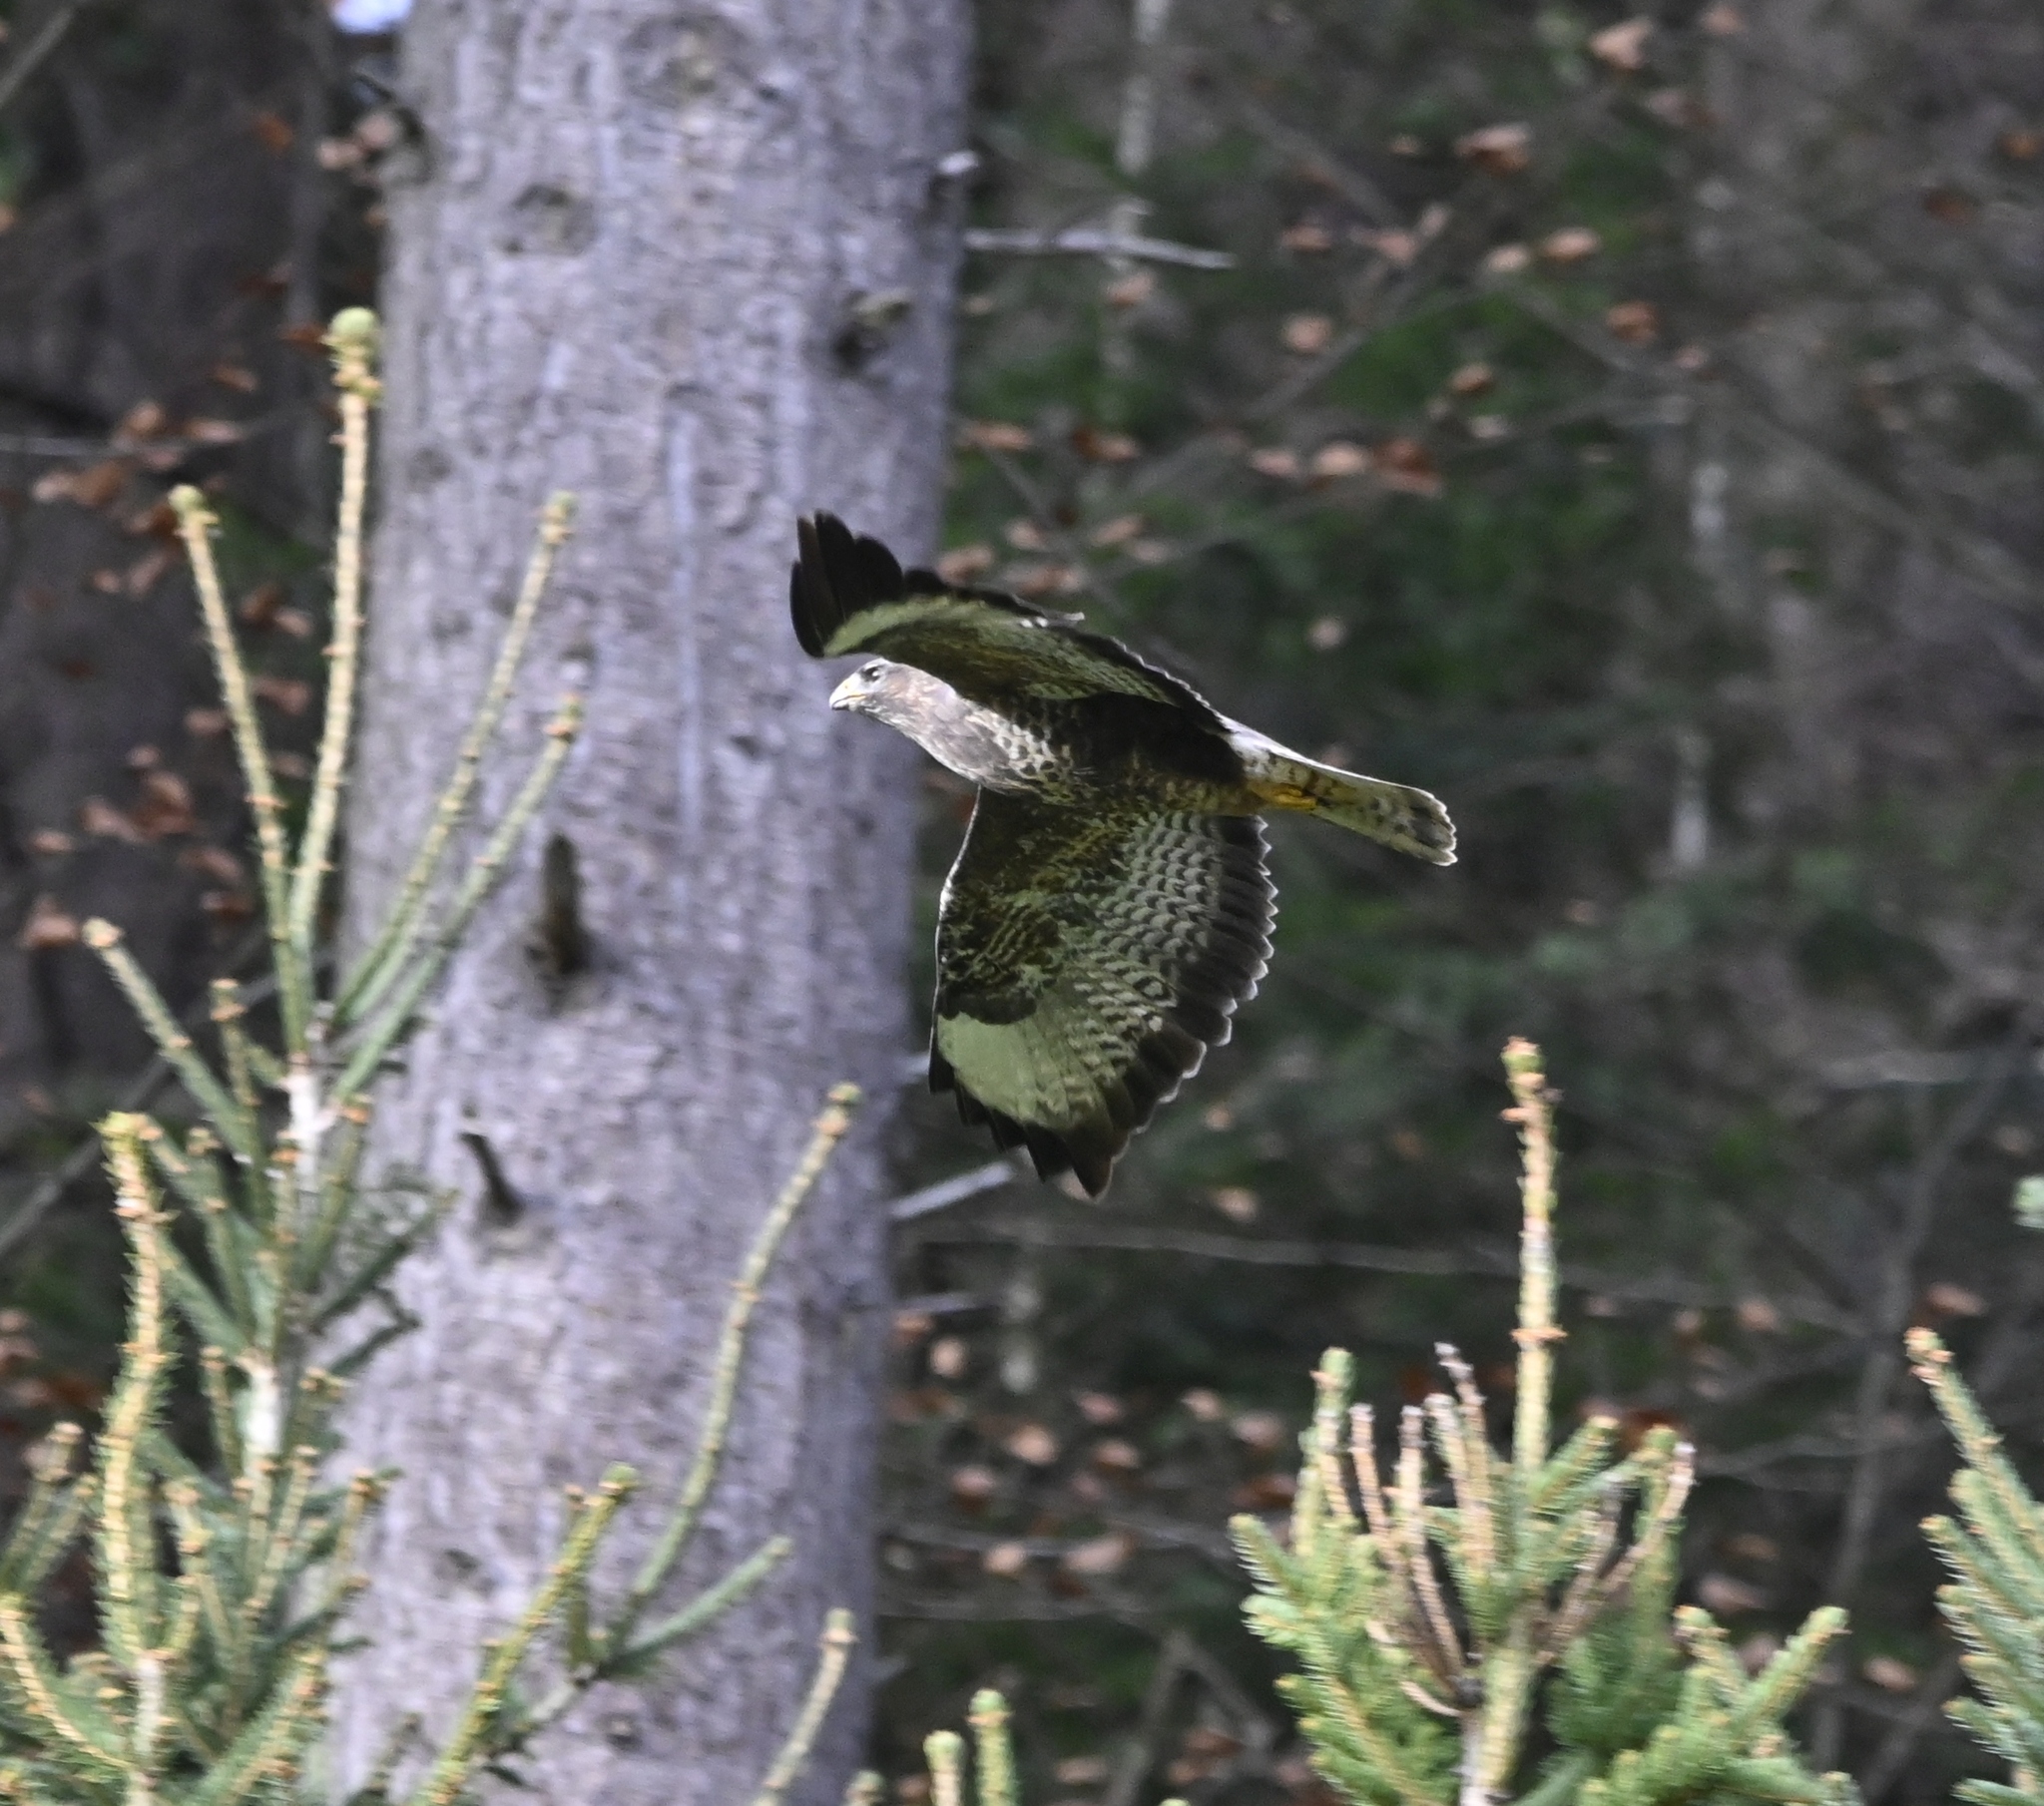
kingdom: Animalia
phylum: Chordata
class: Aves
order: Accipitriformes
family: Accipitridae
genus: Buteo
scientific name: Buteo buteo
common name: Common buzzard
